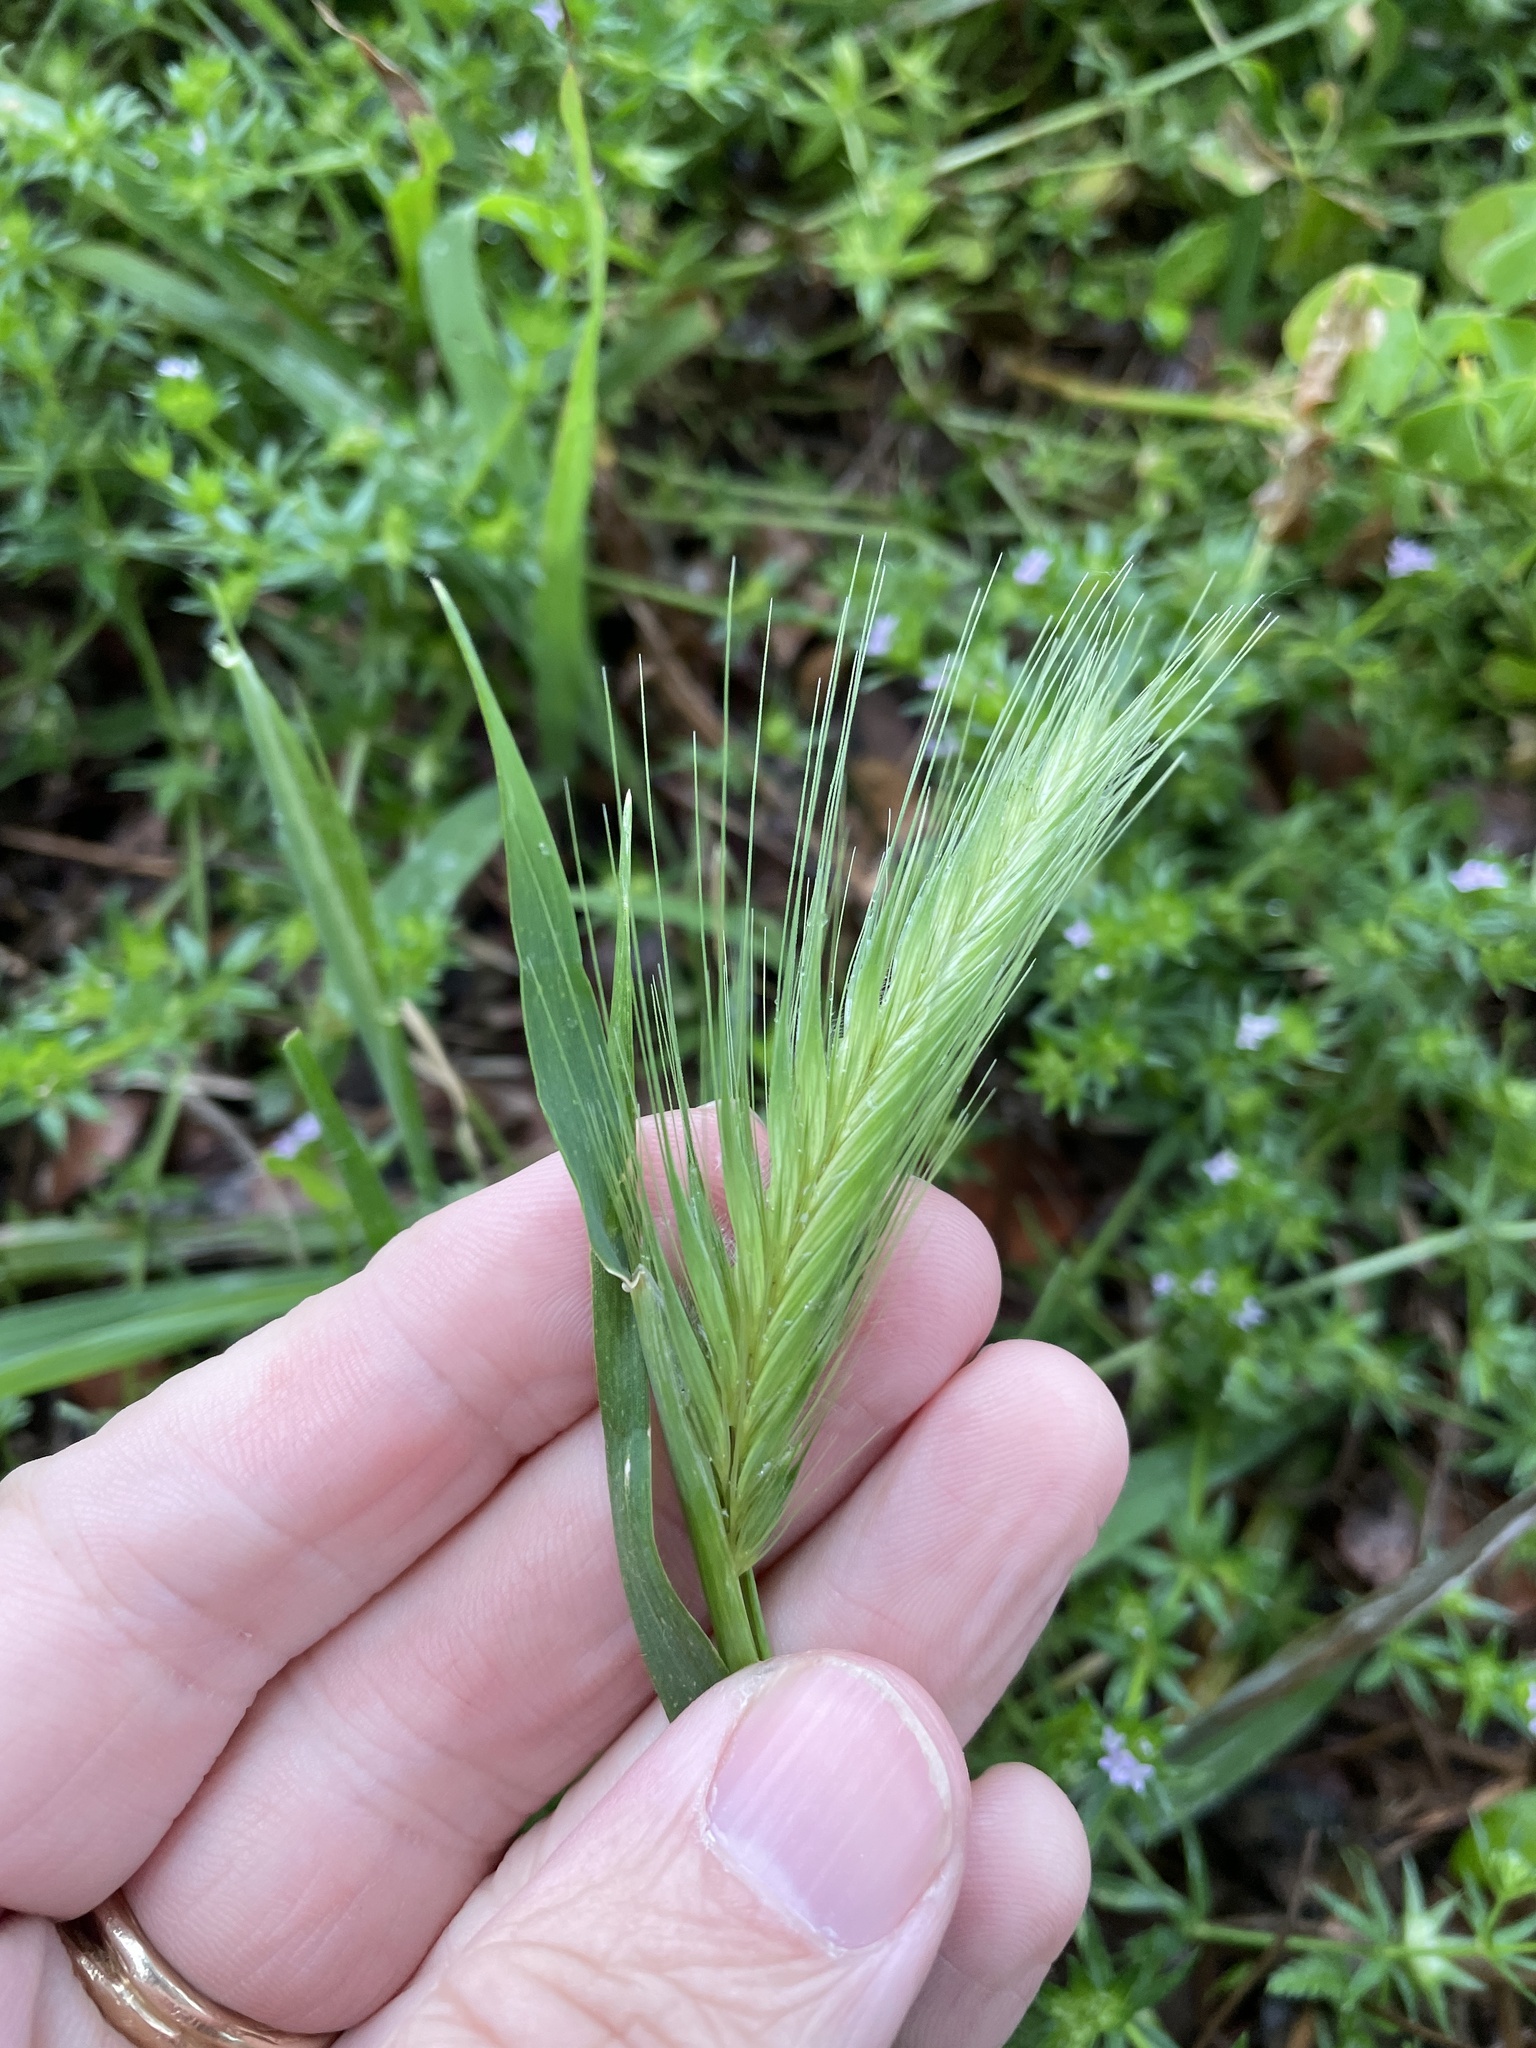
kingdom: Plantae
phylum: Tracheophyta
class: Liliopsida
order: Poales
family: Poaceae
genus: Hordeum
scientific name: Hordeum murinum
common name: Wall barley
